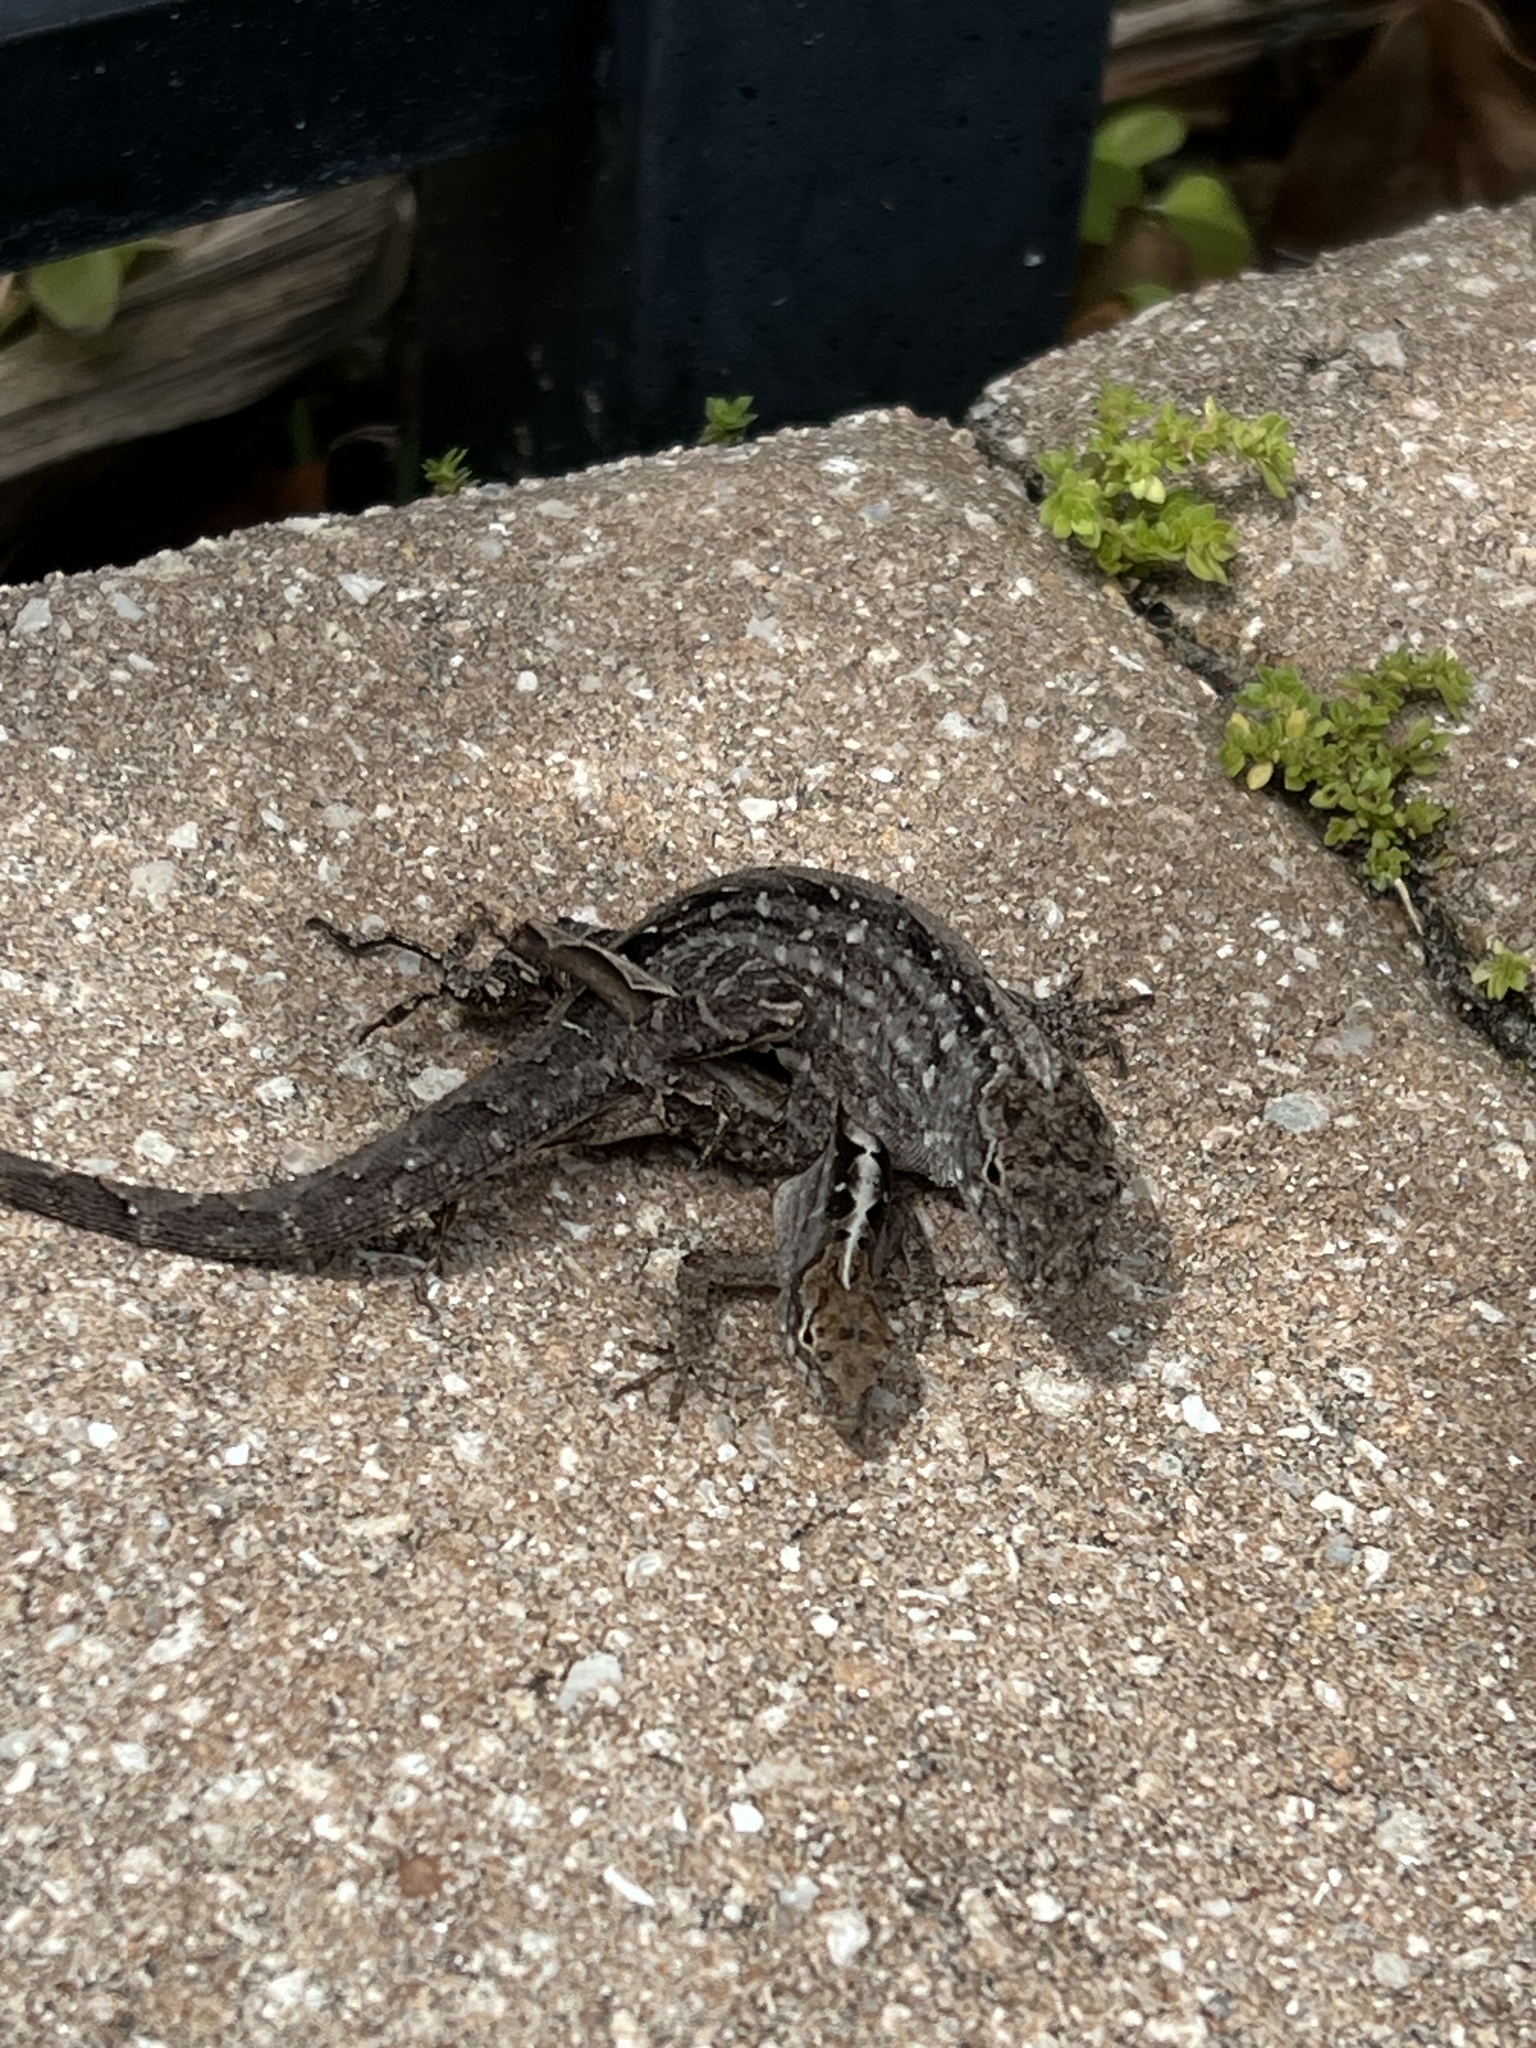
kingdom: Animalia
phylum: Chordata
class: Squamata
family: Dactyloidae
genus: Anolis
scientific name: Anolis sagrei
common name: Brown anole
